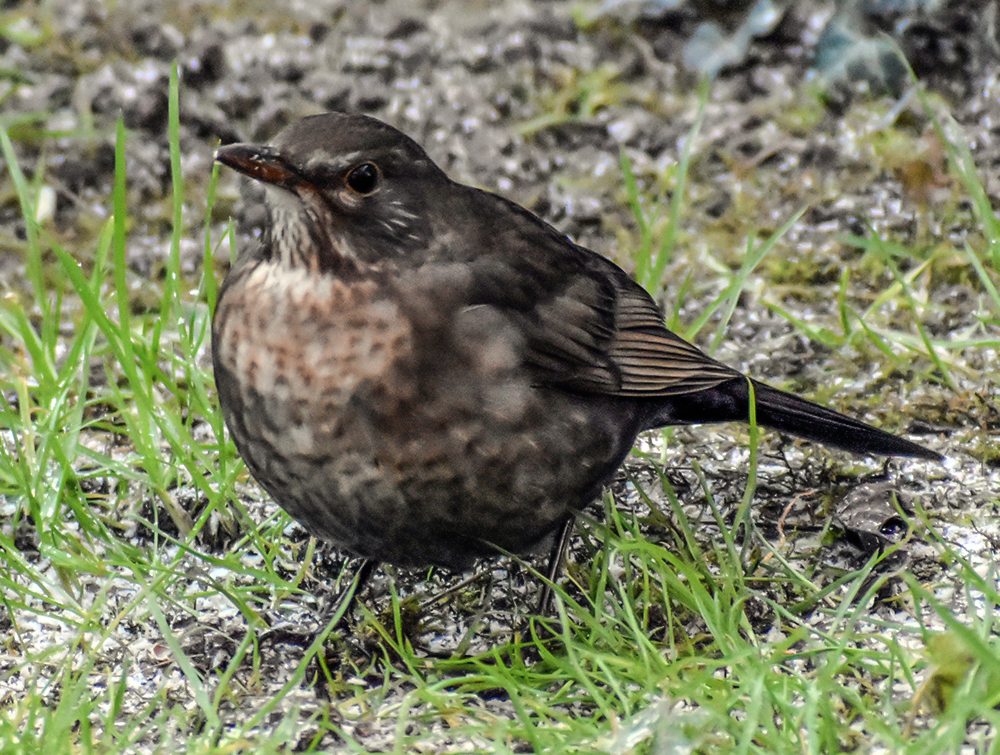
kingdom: Animalia
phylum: Chordata
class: Aves
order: Passeriformes
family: Turdidae
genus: Turdus
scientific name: Turdus merula
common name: Common blackbird
